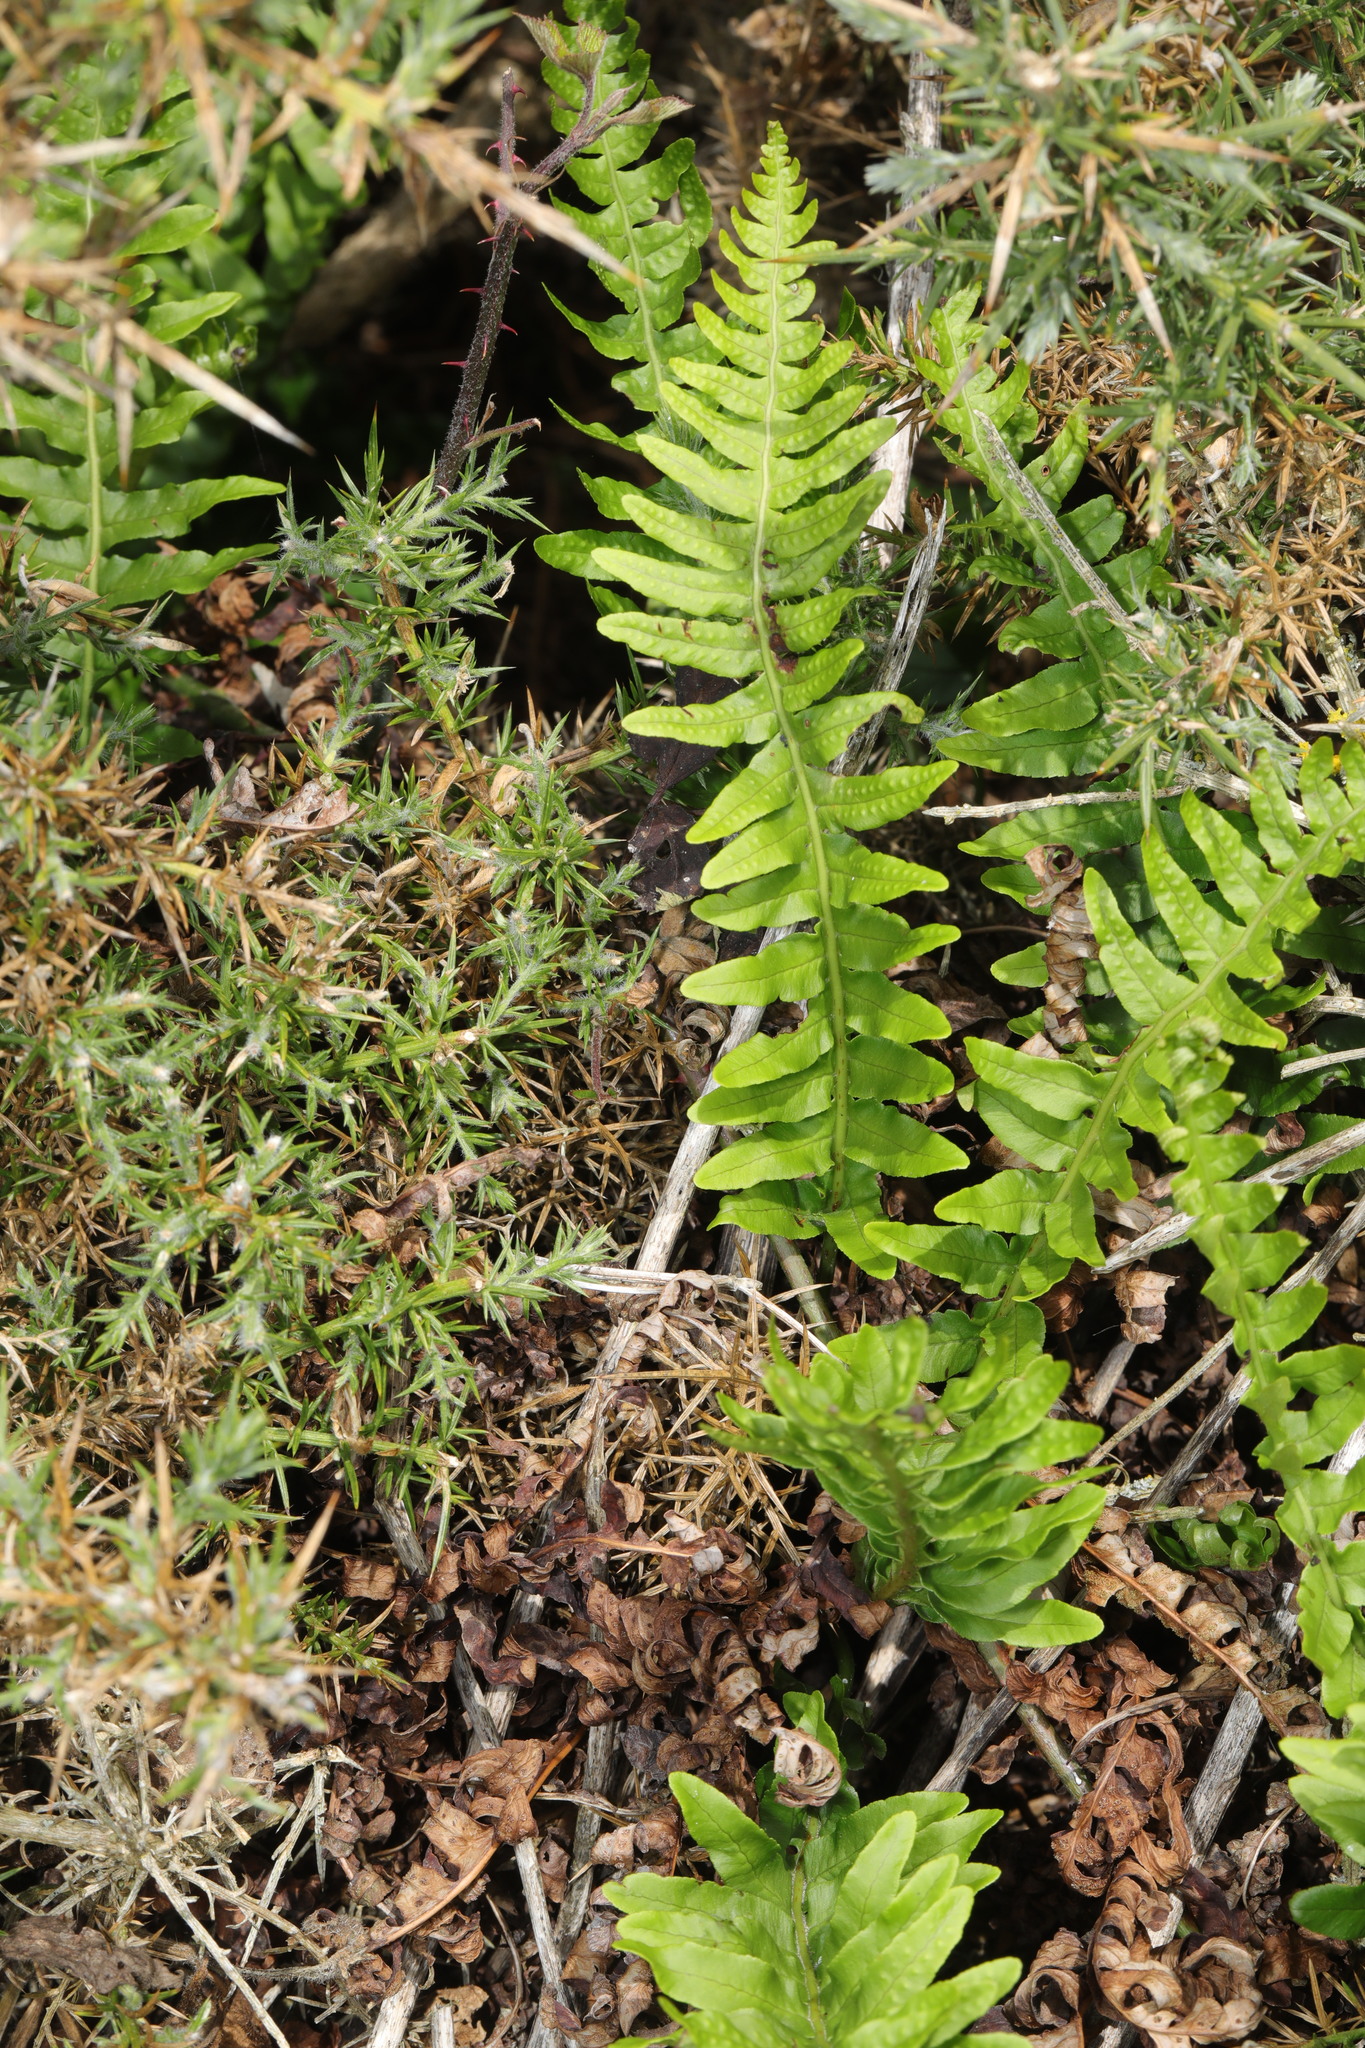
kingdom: Plantae
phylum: Tracheophyta
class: Polypodiopsida
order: Polypodiales
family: Polypodiaceae
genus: Polypodium
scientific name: Polypodium vulgare
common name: Common polypody
